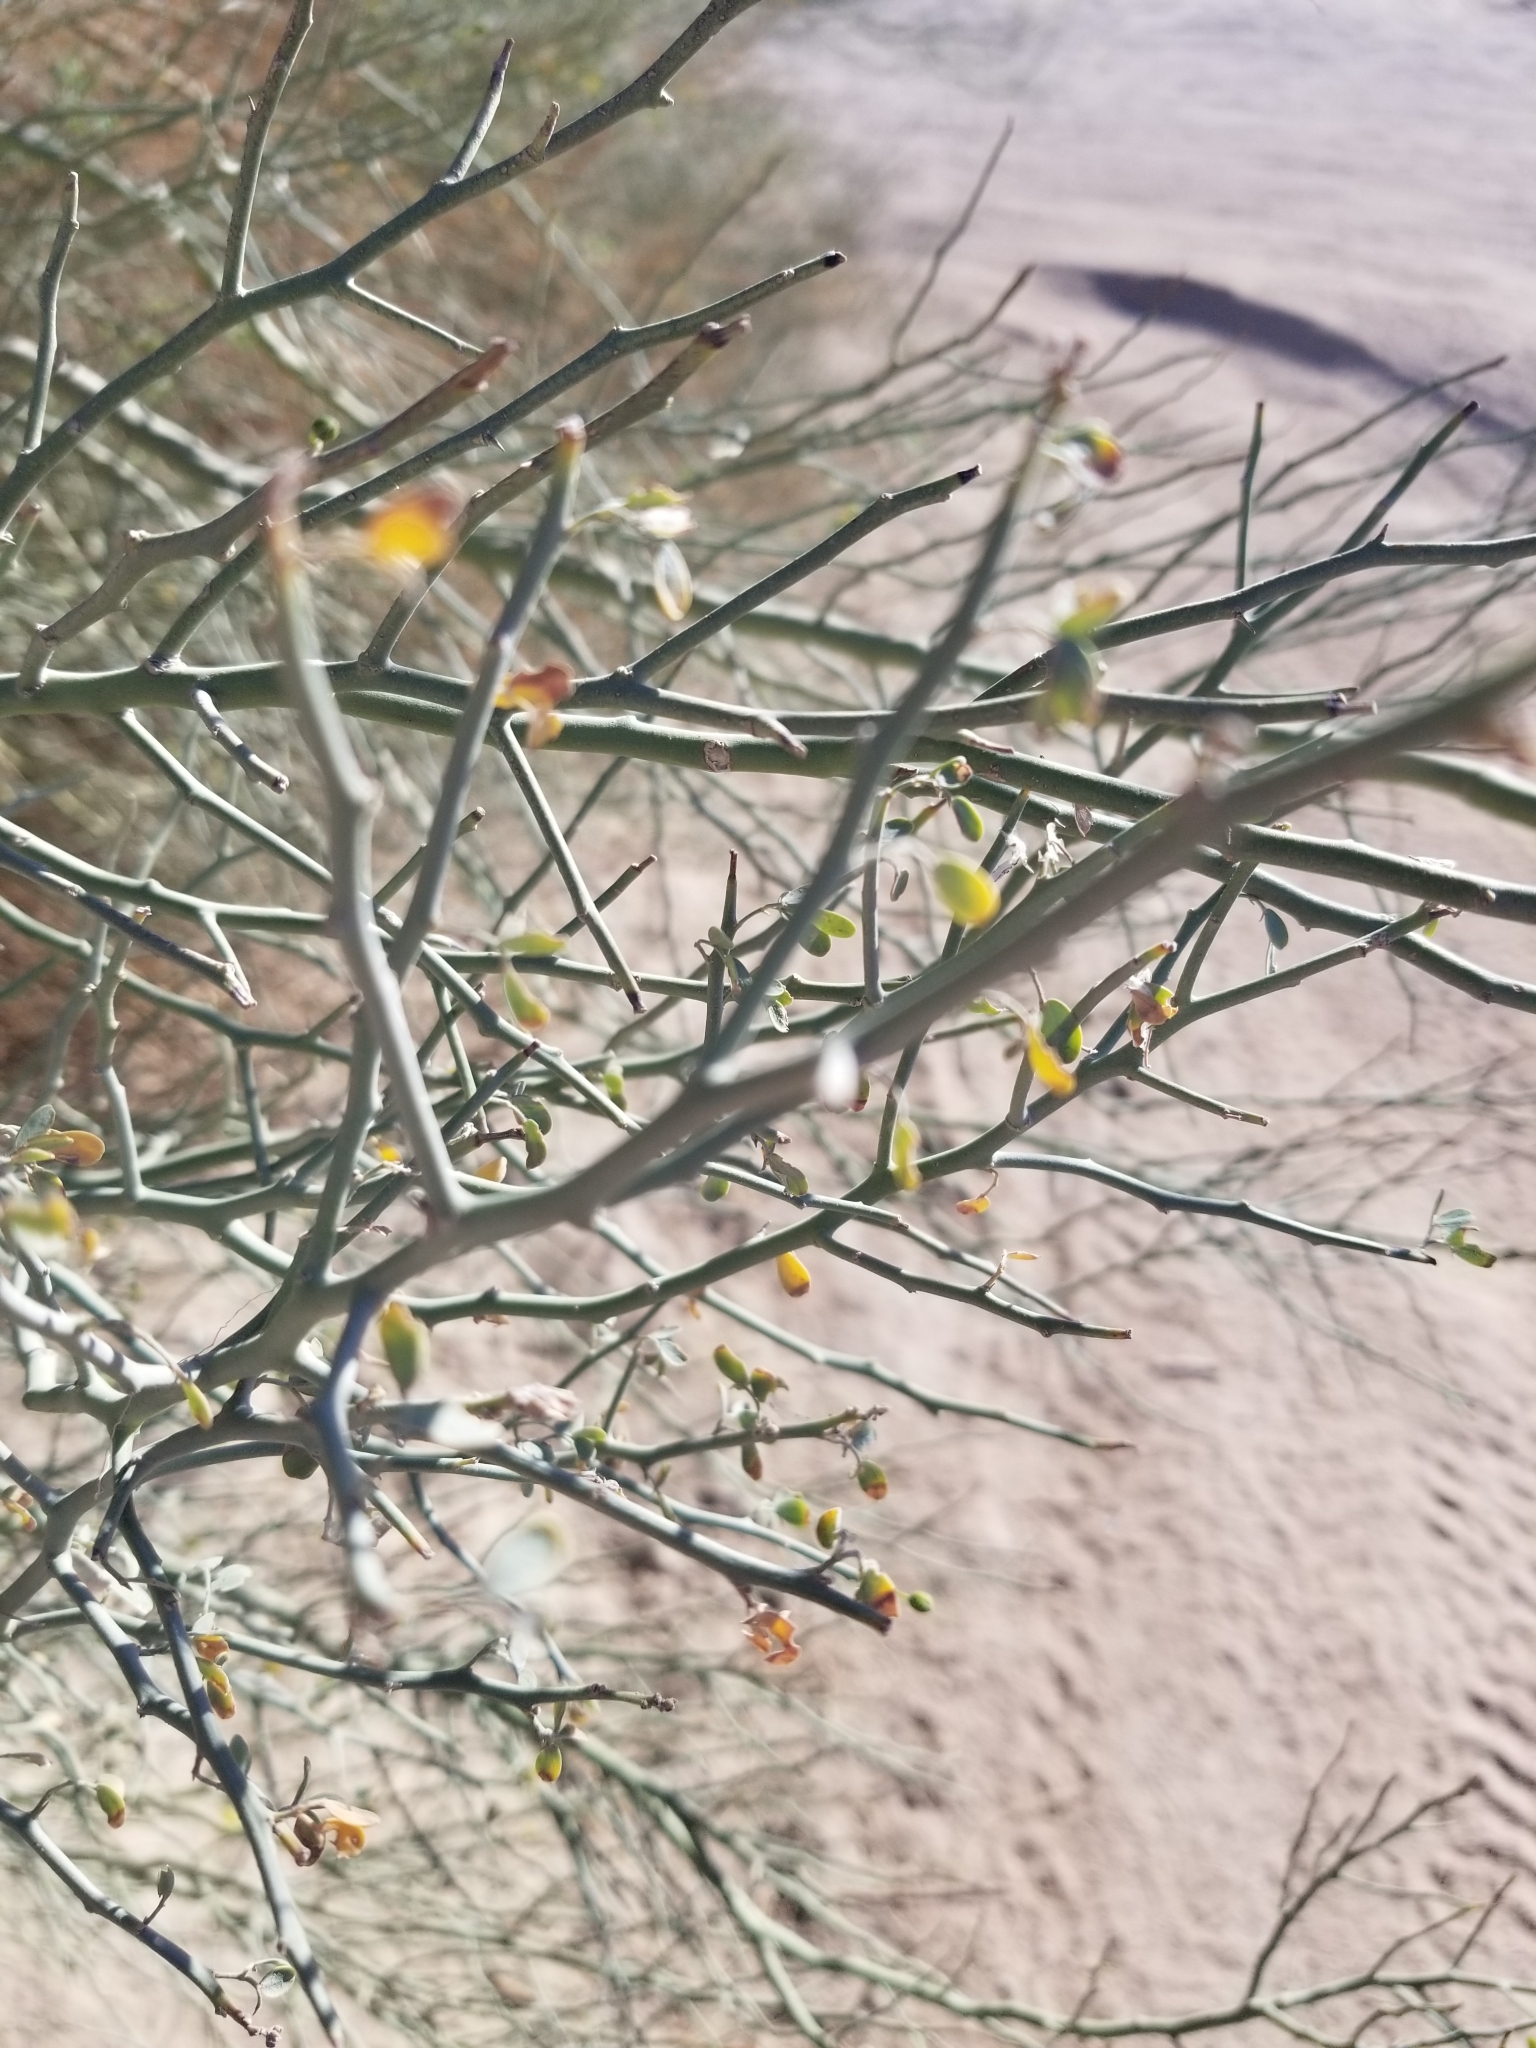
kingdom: Plantae
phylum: Tracheophyta
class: Magnoliopsida
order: Fabales
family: Fabaceae
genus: Parkinsonia
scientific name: Parkinsonia florida
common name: Blue paloverde
